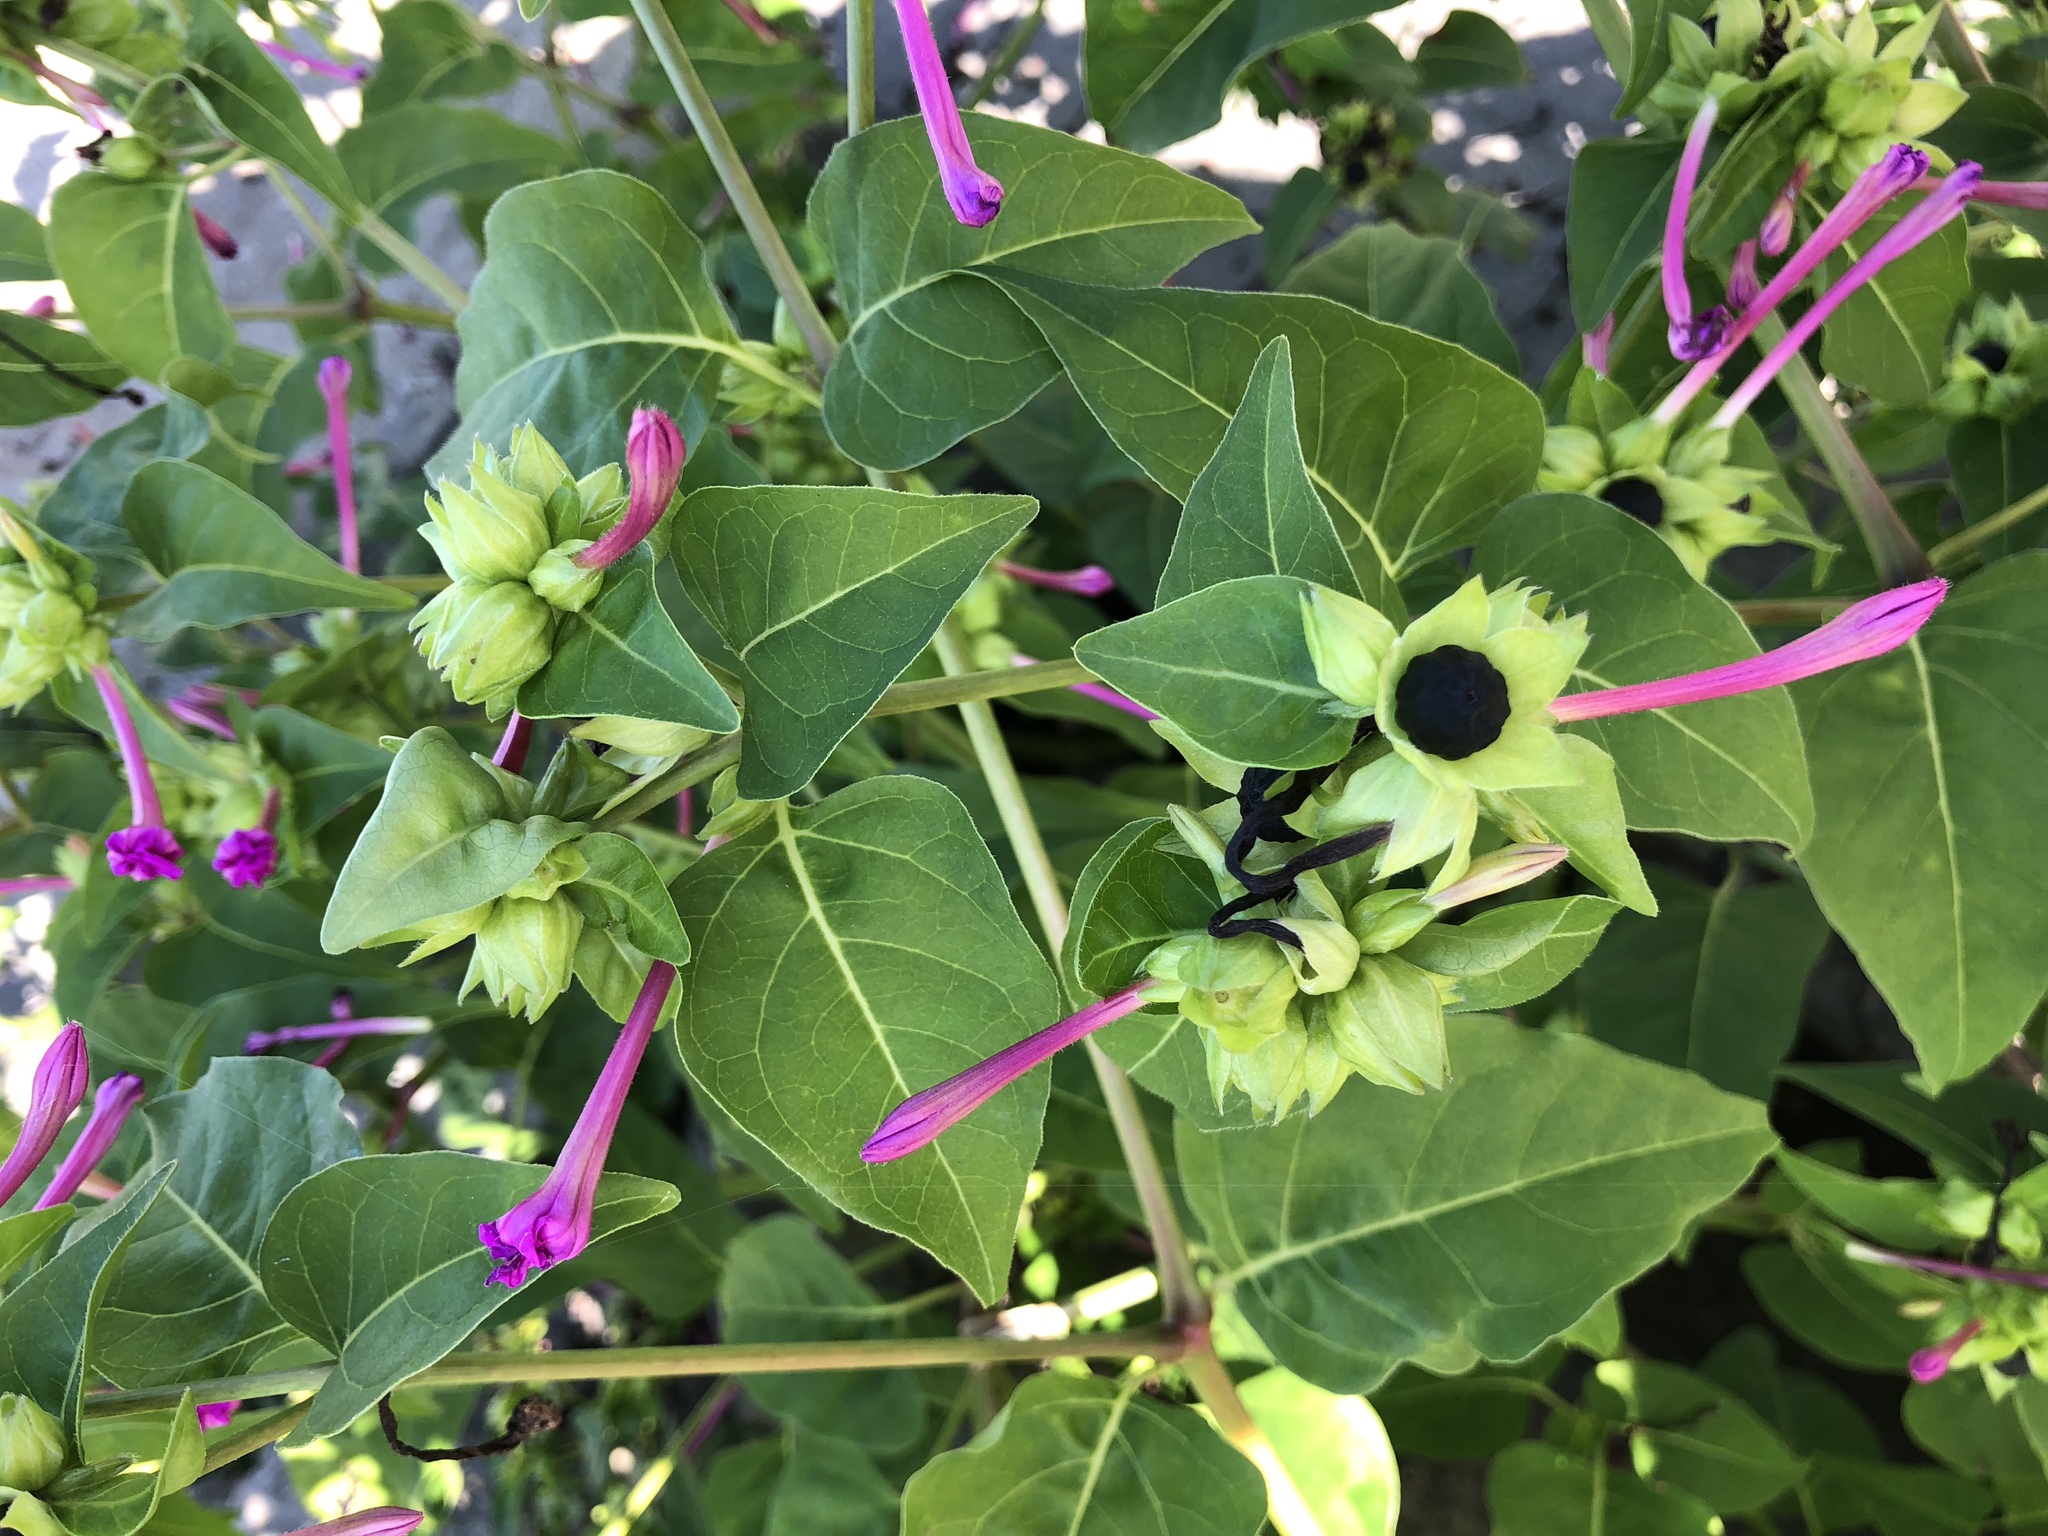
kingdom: Plantae
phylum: Tracheophyta
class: Magnoliopsida
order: Caryophyllales
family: Nyctaginaceae
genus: Mirabilis
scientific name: Mirabilis jalapa
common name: Marvel-of-peru
